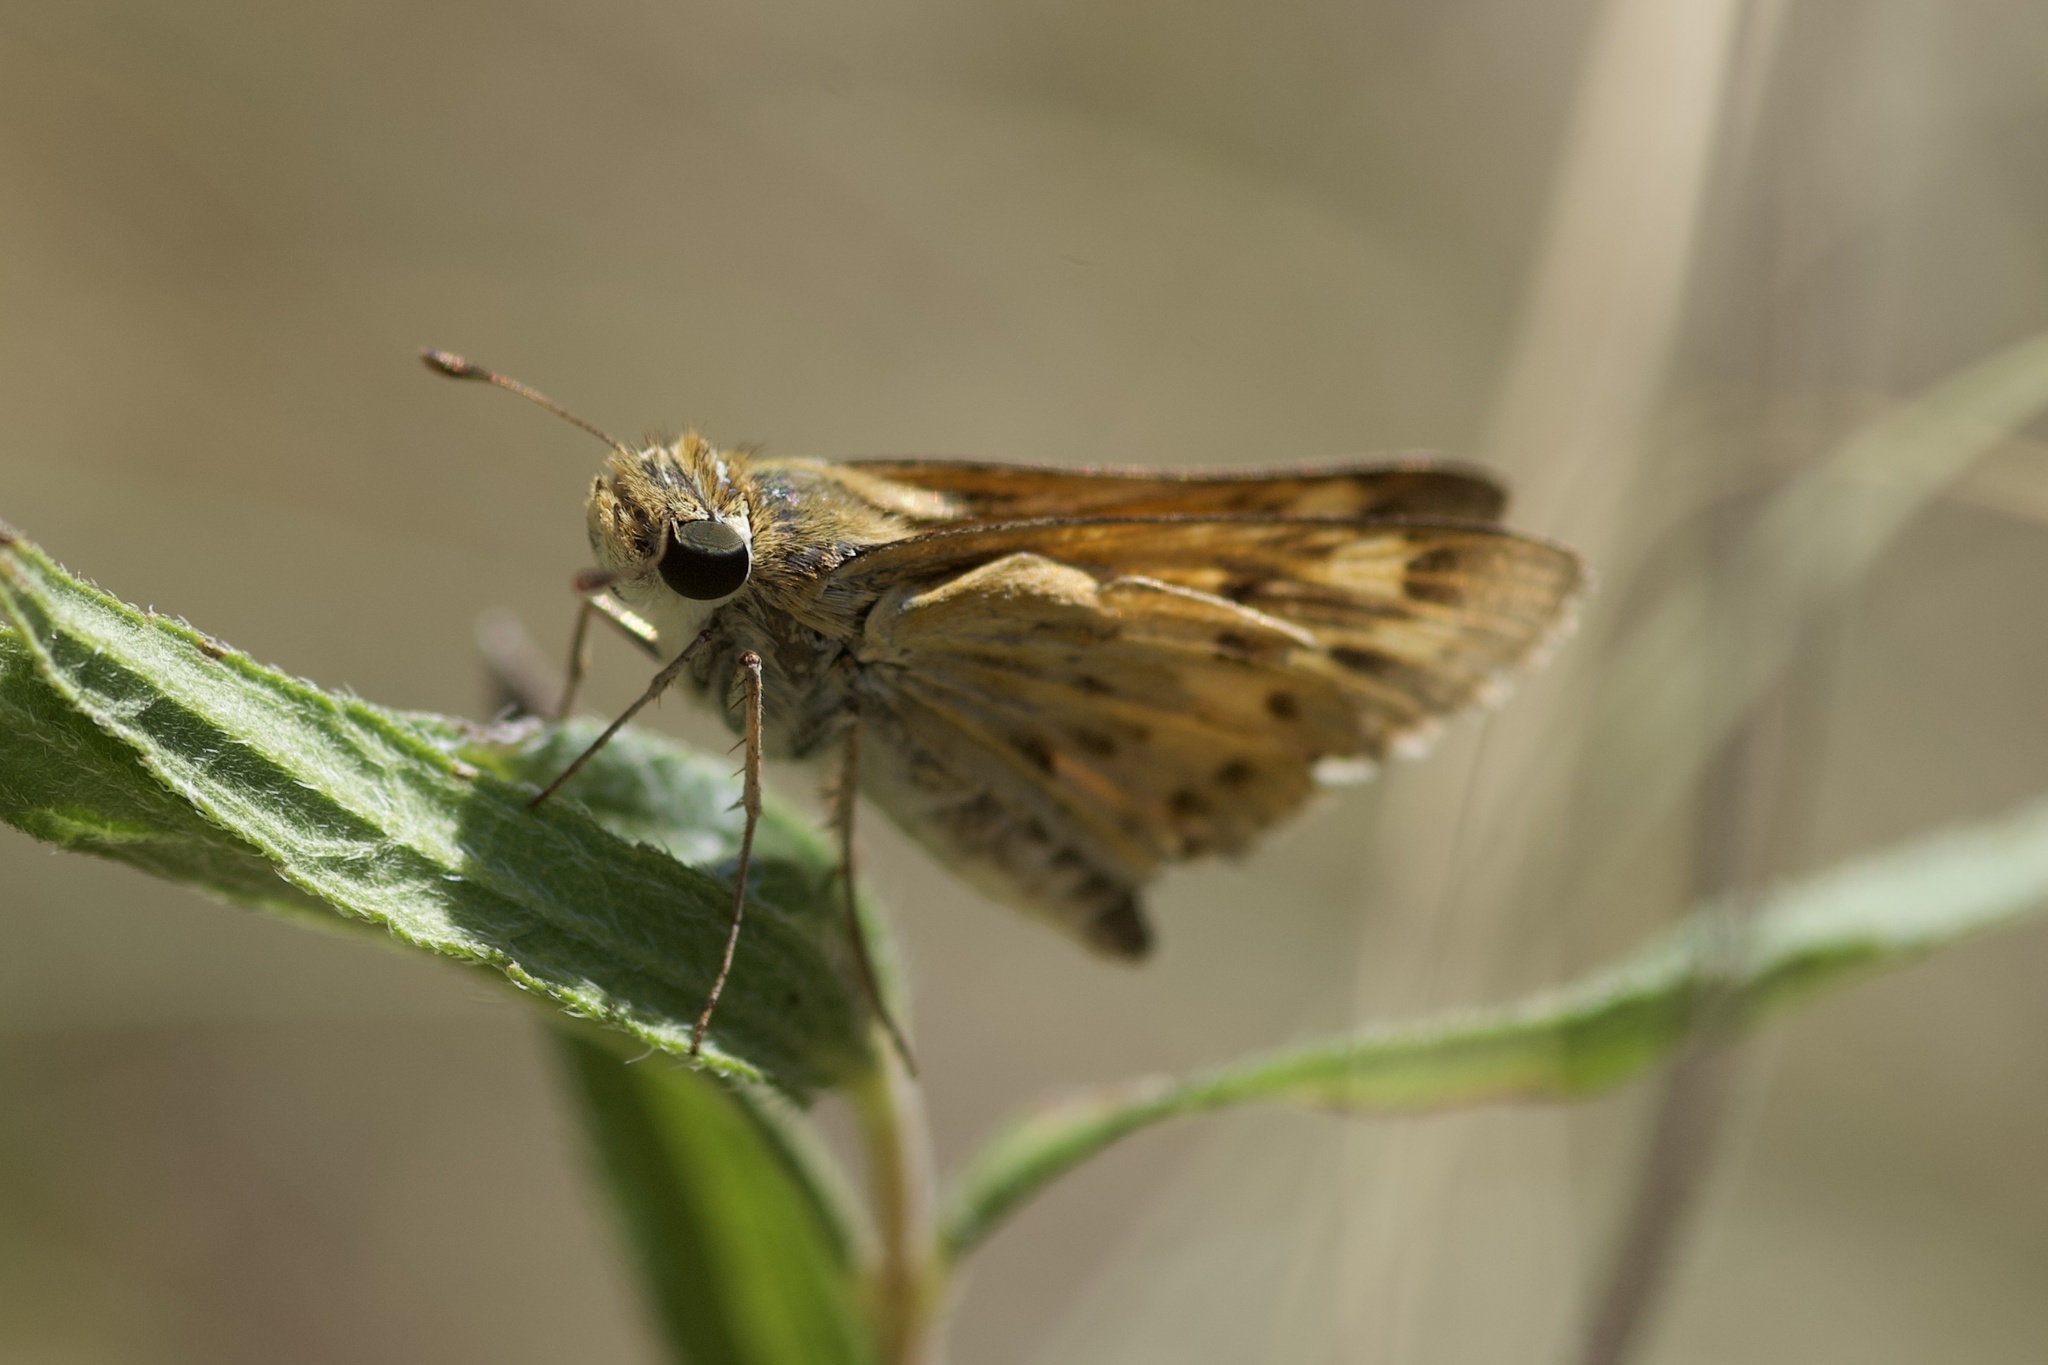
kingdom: Animalia
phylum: Arthropoda
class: Insecta
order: Lepidoptera
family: Hesperiidae
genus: Hylephila
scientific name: Hylephila phyleus
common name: Fiery skipper
